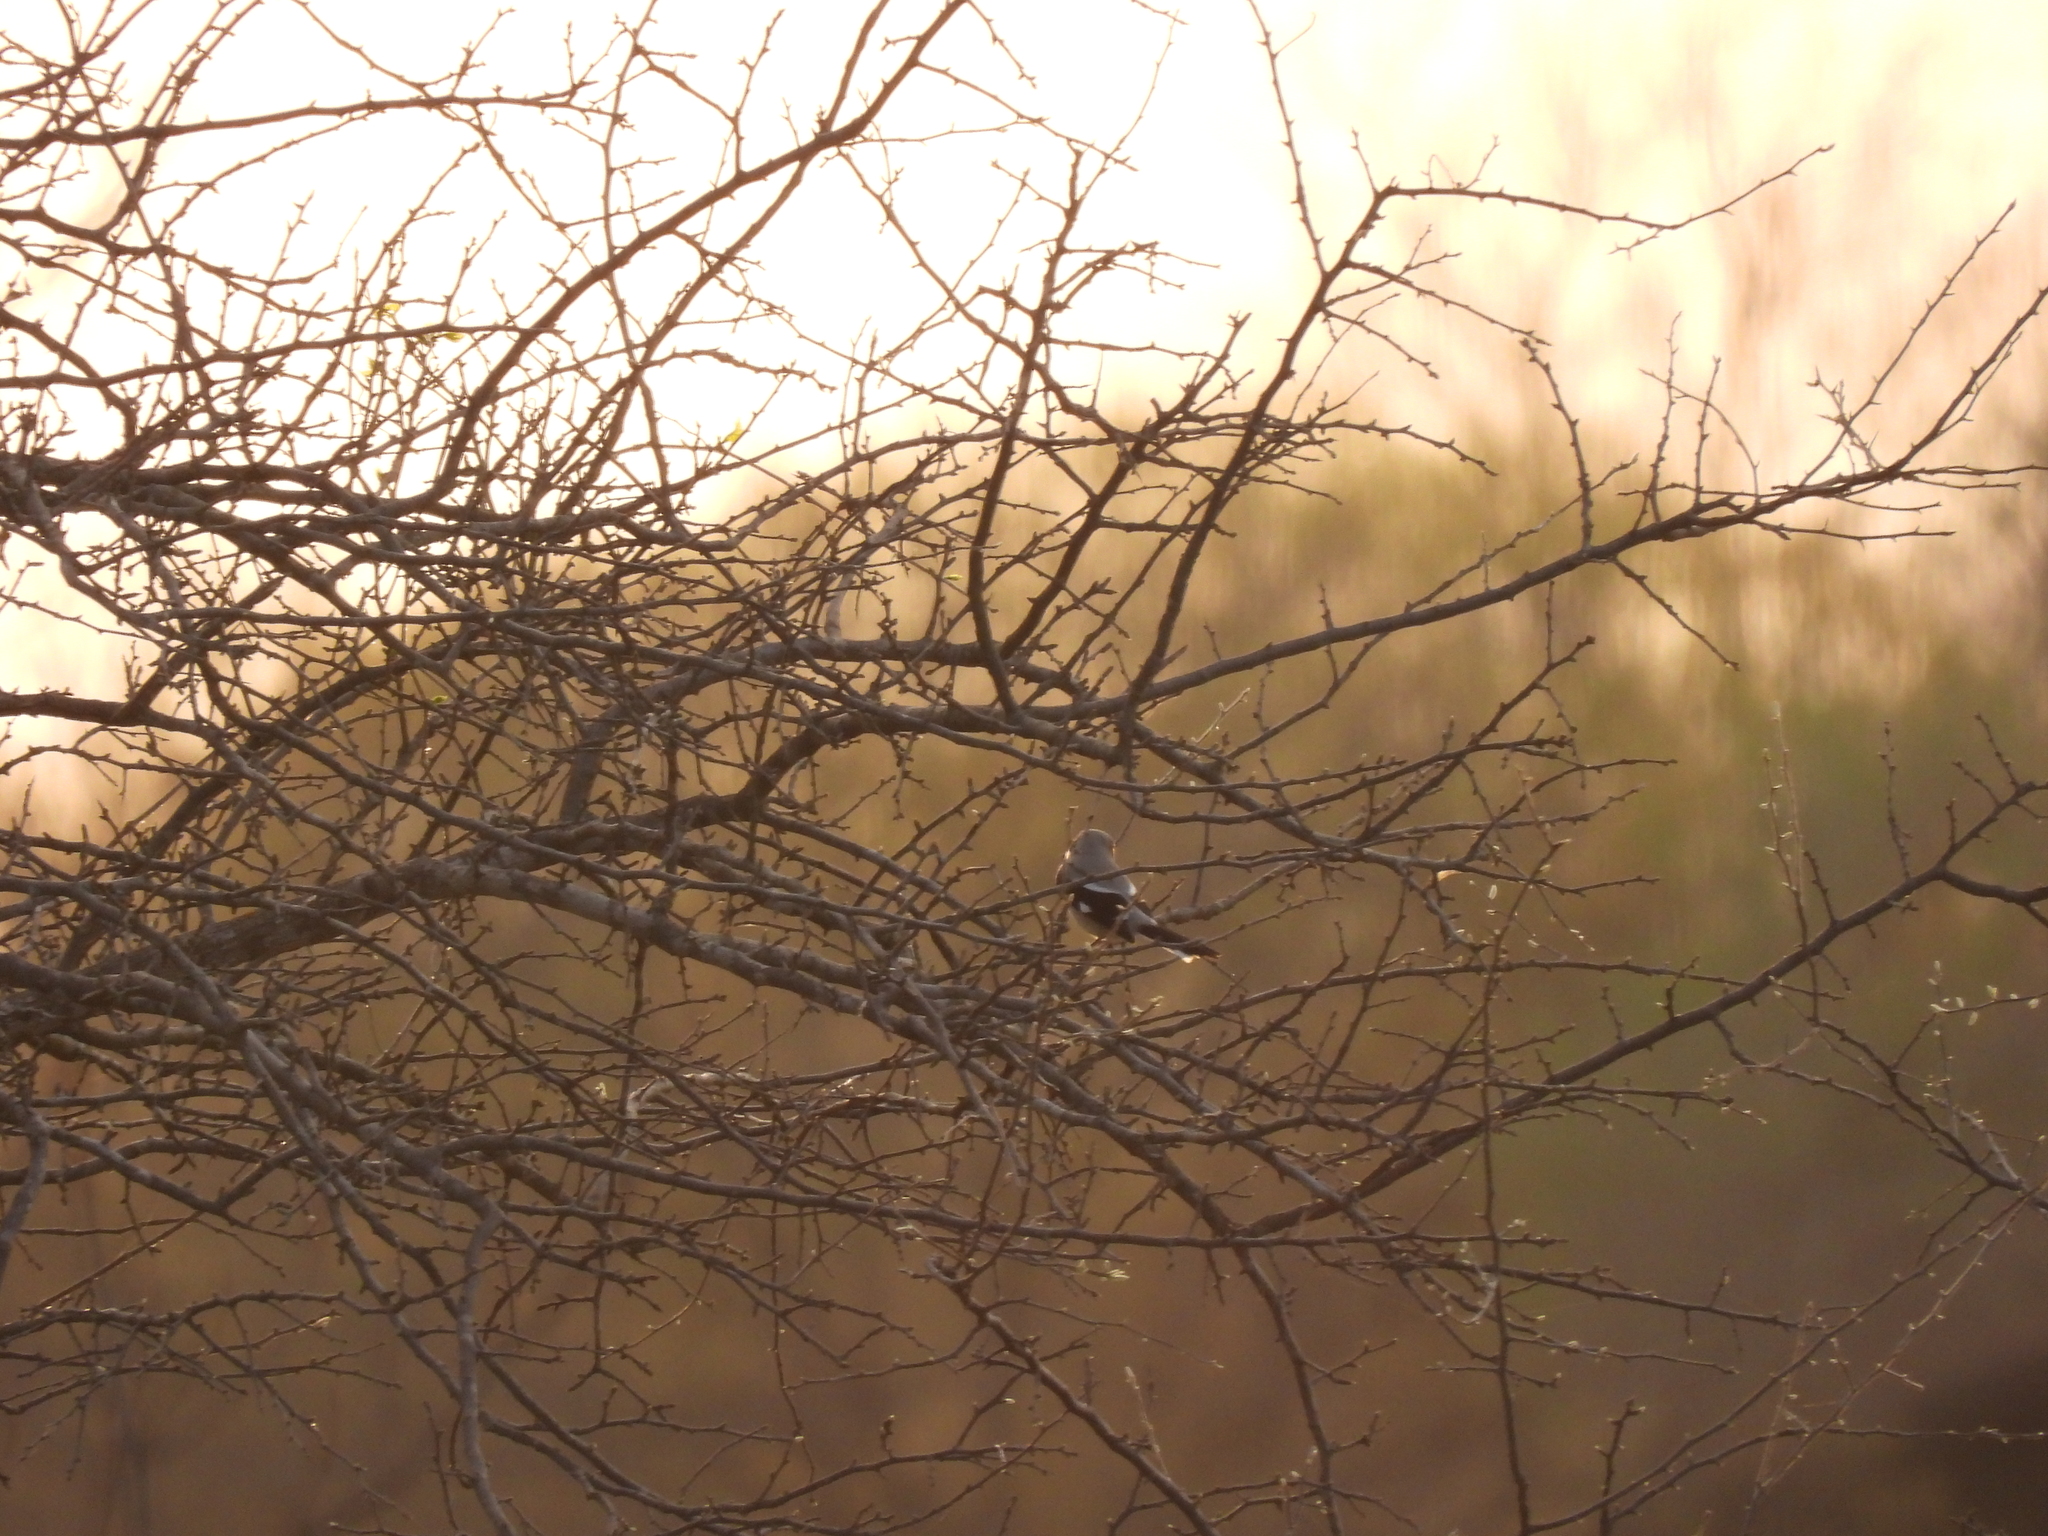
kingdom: Animalia
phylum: Chordata
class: Aves
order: Passeriformes
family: Laniidae
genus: Lanius
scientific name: Lanius ludovicianus
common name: Loggerhead shrike
